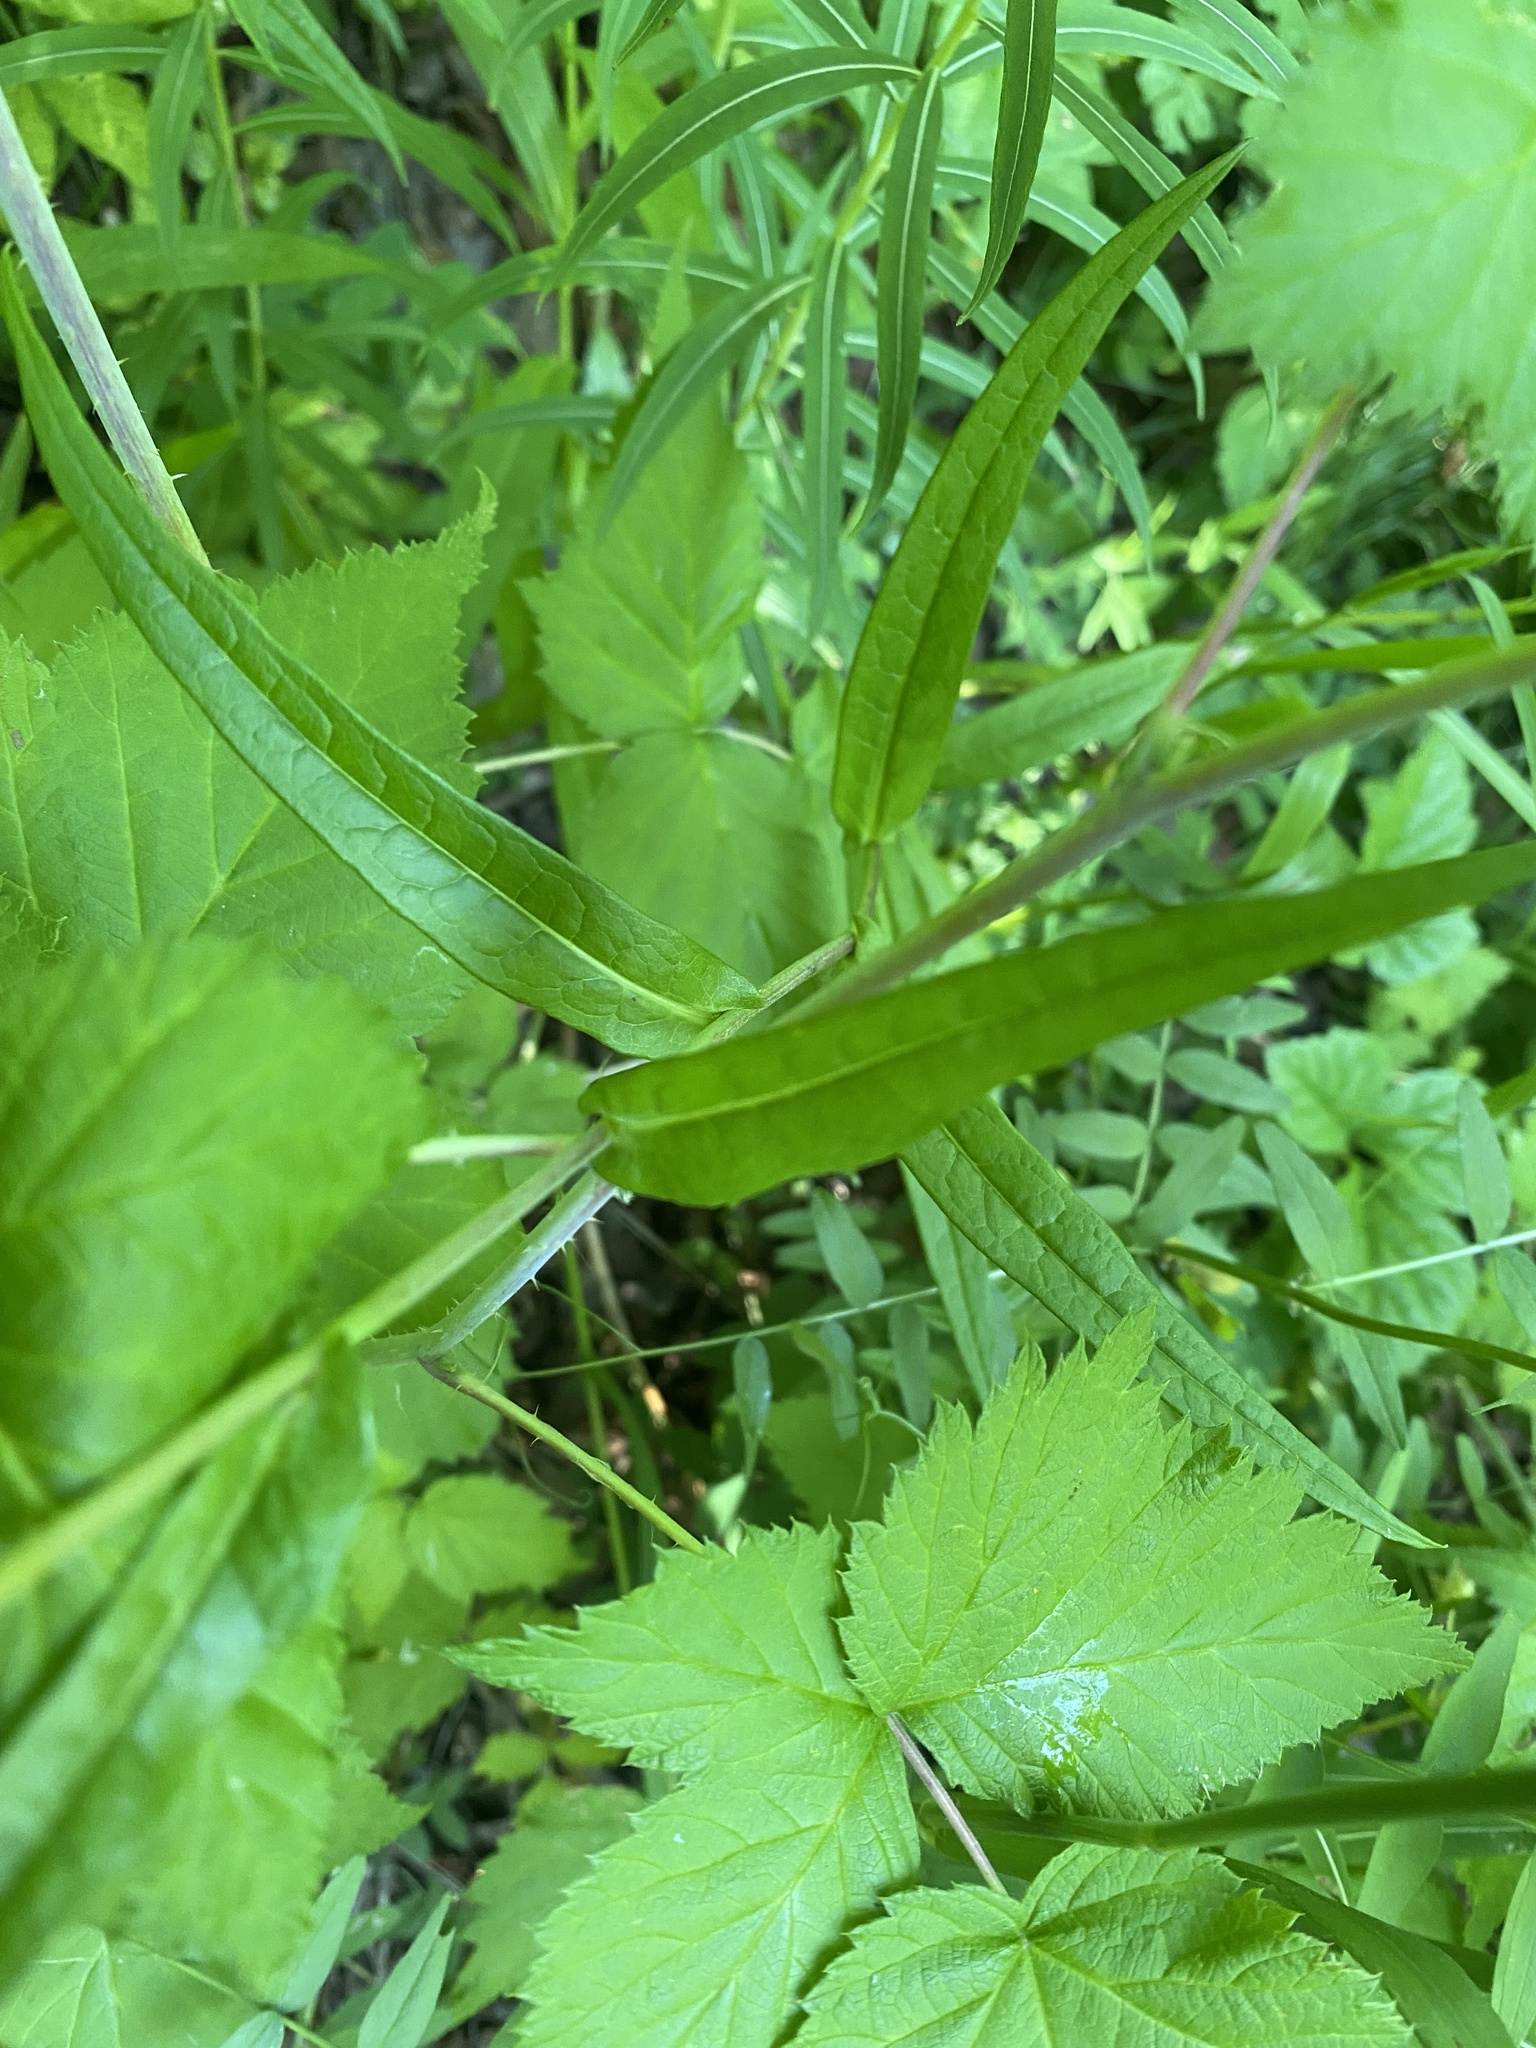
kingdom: Plantae
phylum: Tracheophyta
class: Magnoliopsida
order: Asterales
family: Asteraceae
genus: Lactuca
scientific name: Lactuca sibirica
